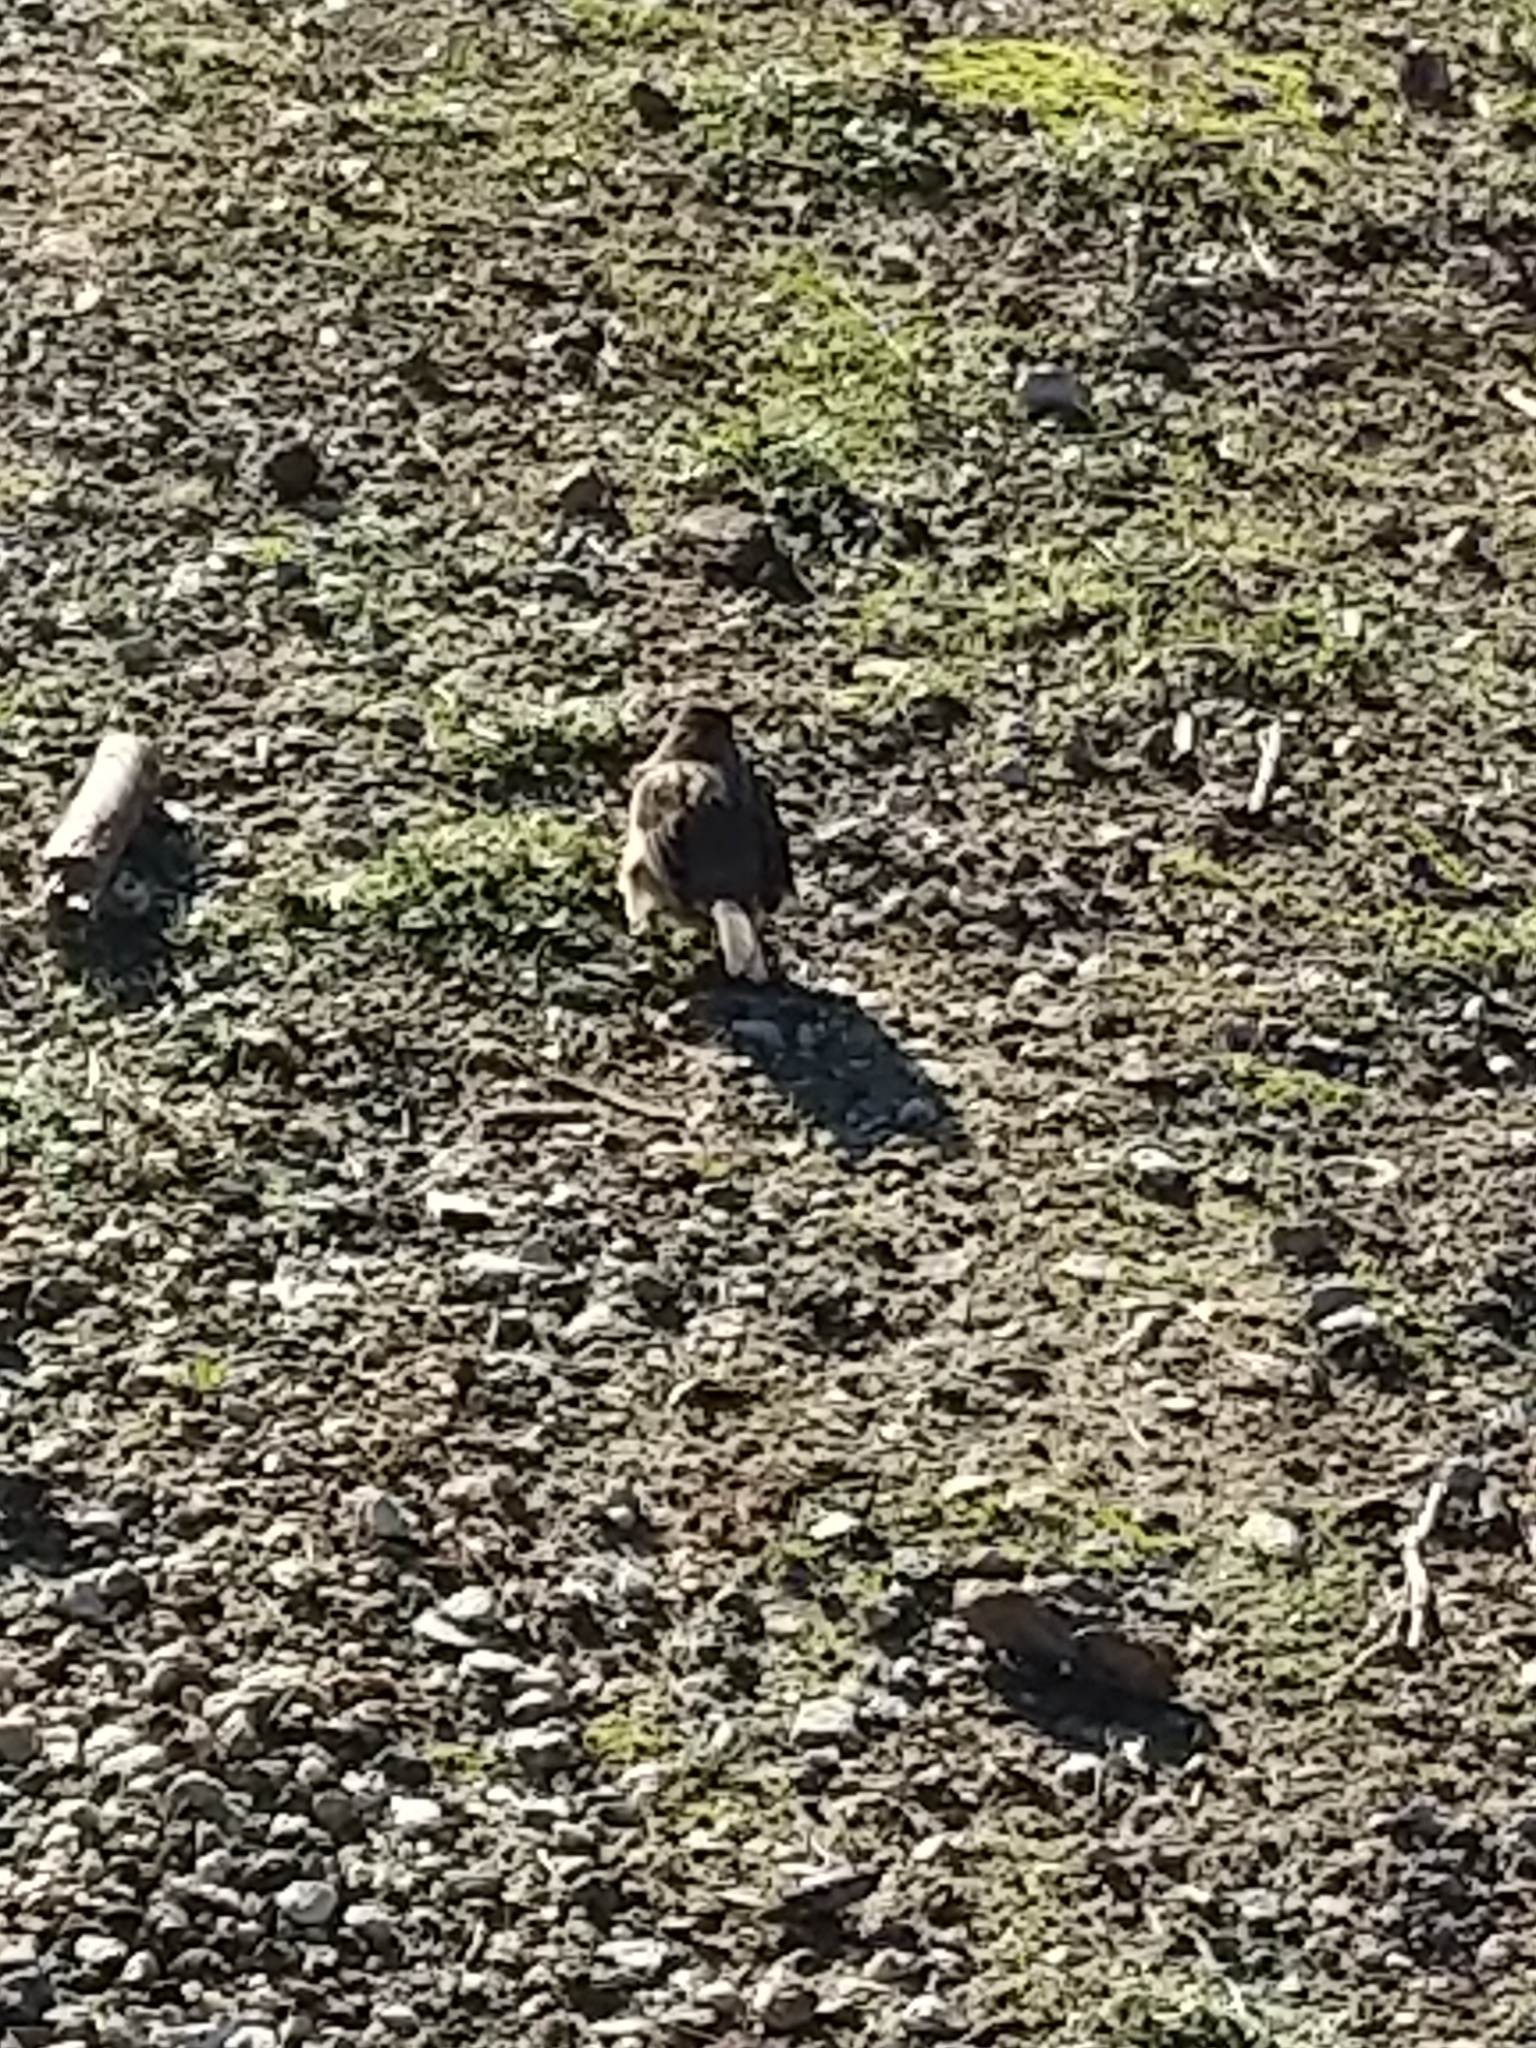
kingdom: Animalia
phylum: Chordata
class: Aves
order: Passeriformes
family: Passerellidae
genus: Zonotrichia
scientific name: Zonotrichia atricapilla
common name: Golden-crowned sparrow
